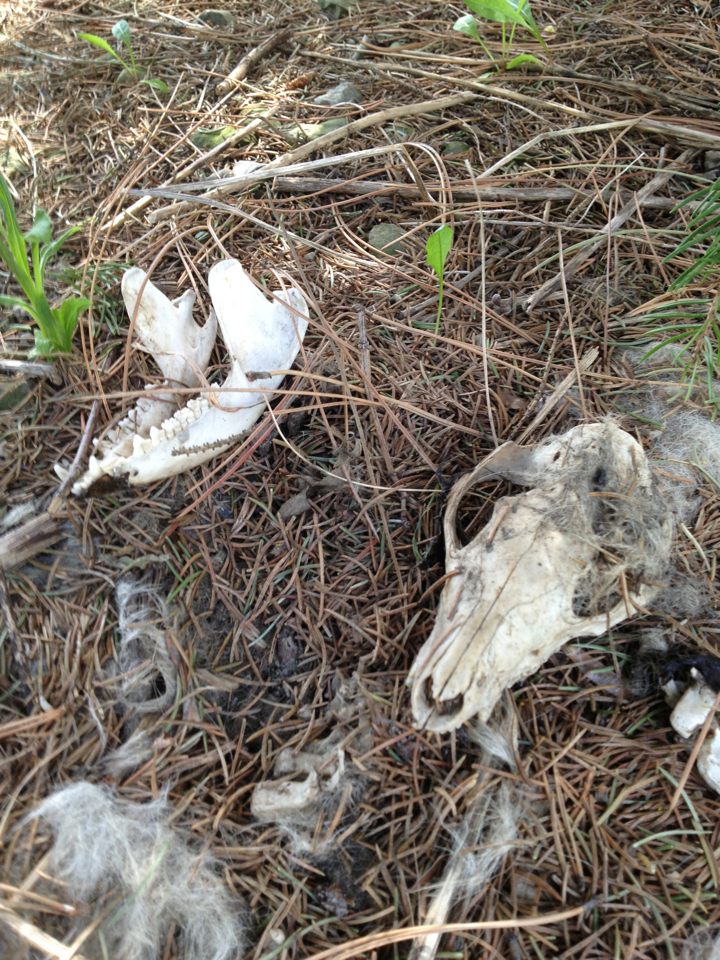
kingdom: Animalia
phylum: Chordata
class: Mammalia
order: Didelphimorphia
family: Didelphidae
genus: Didelphis
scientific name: Didelphis virginiana
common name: Virginia opossum
